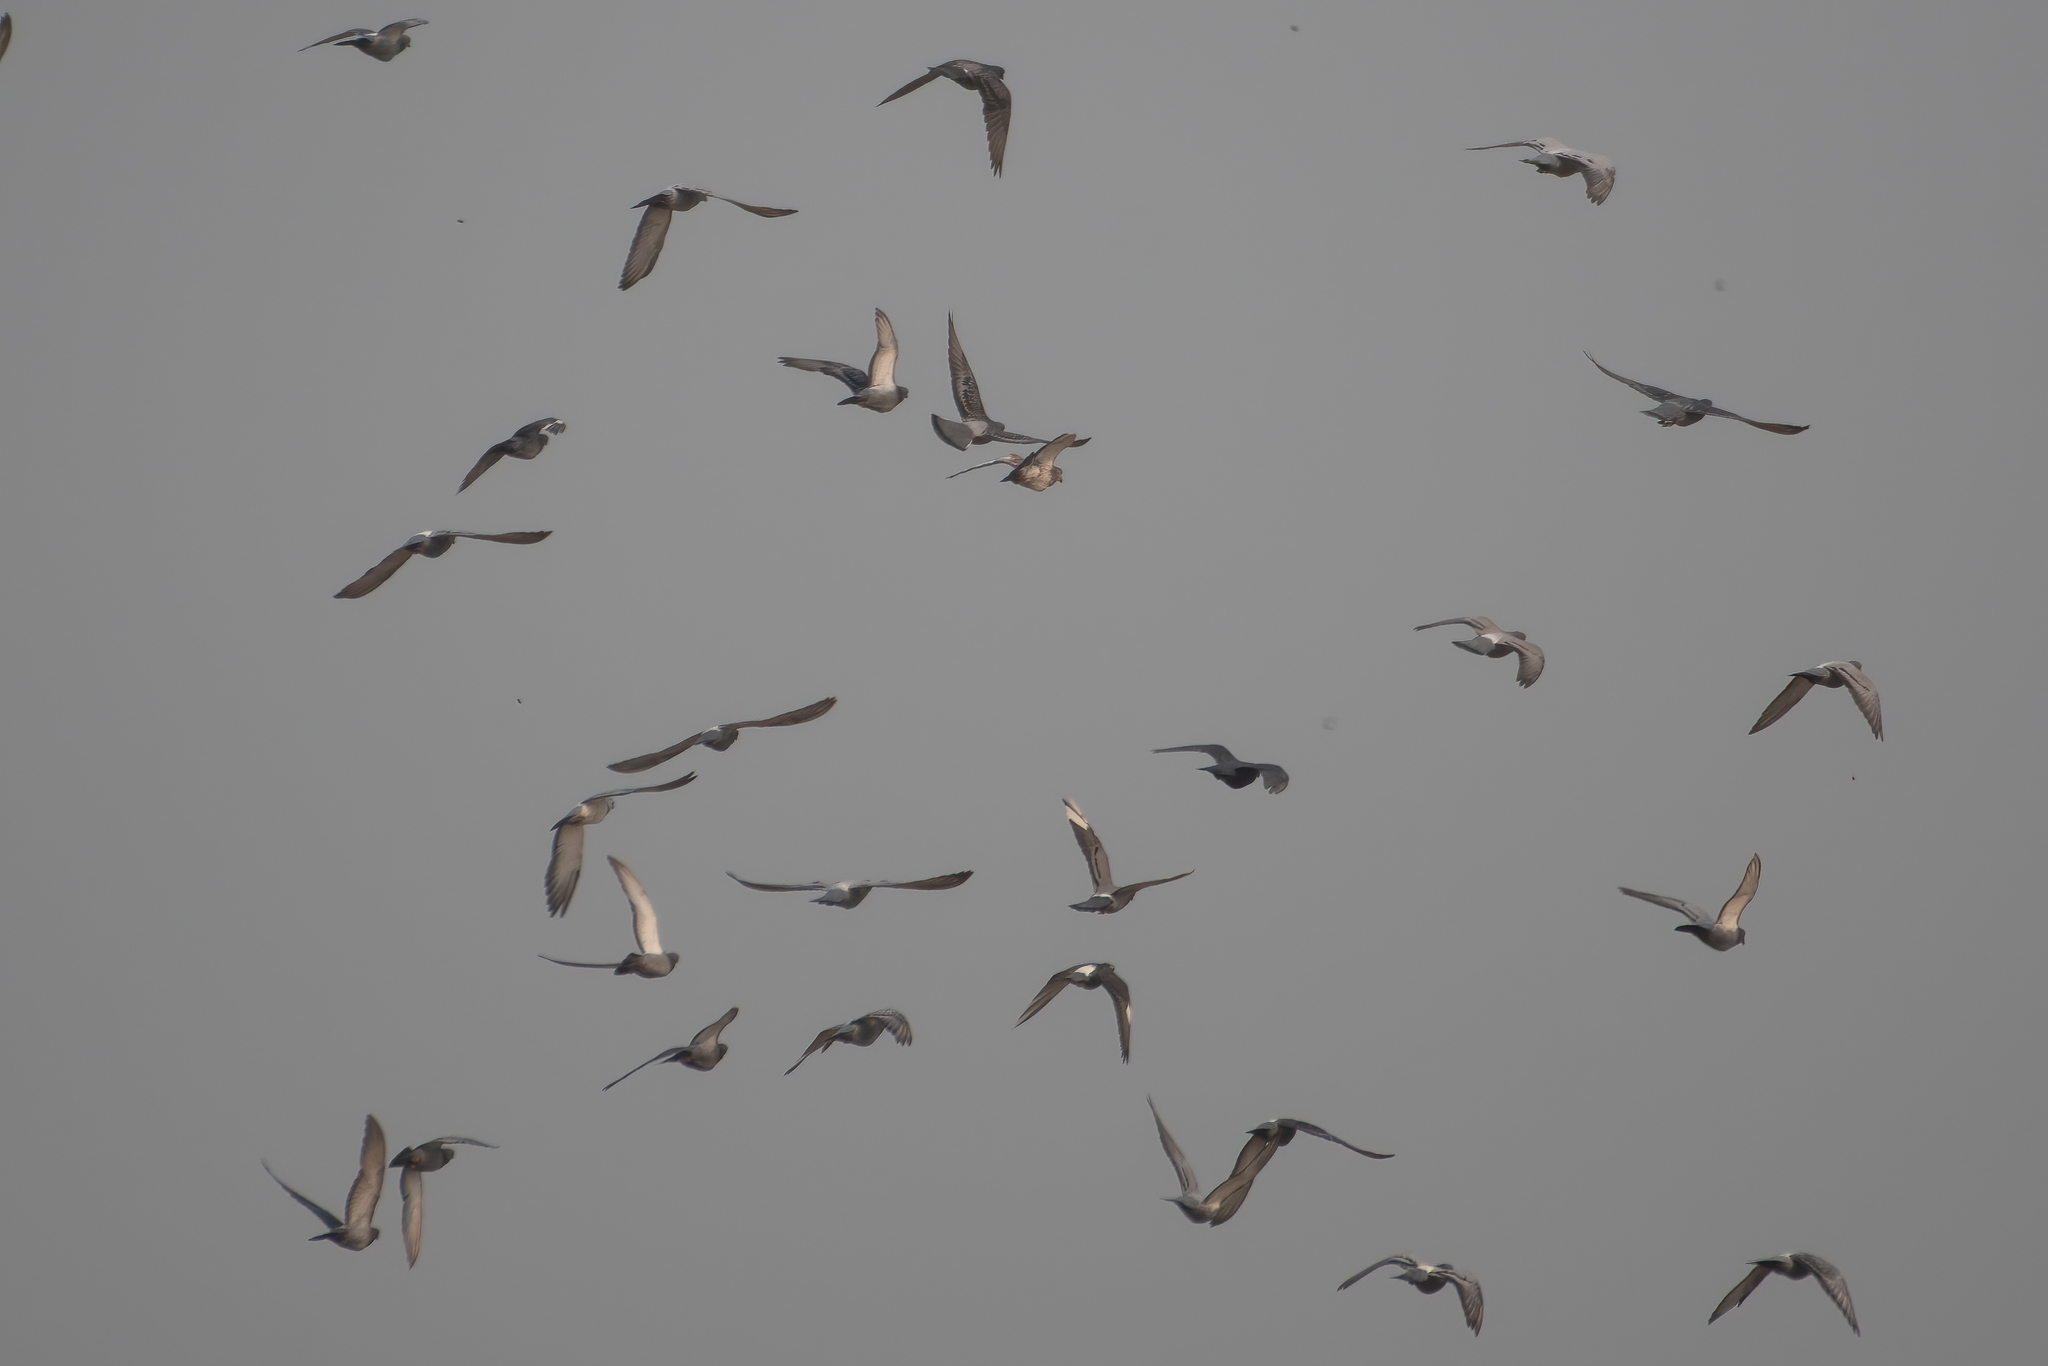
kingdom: Animalia
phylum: Chordata
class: Aves
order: Columbiformes
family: Columbidae
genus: Columba
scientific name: Columba livia
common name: Rock pigeon
